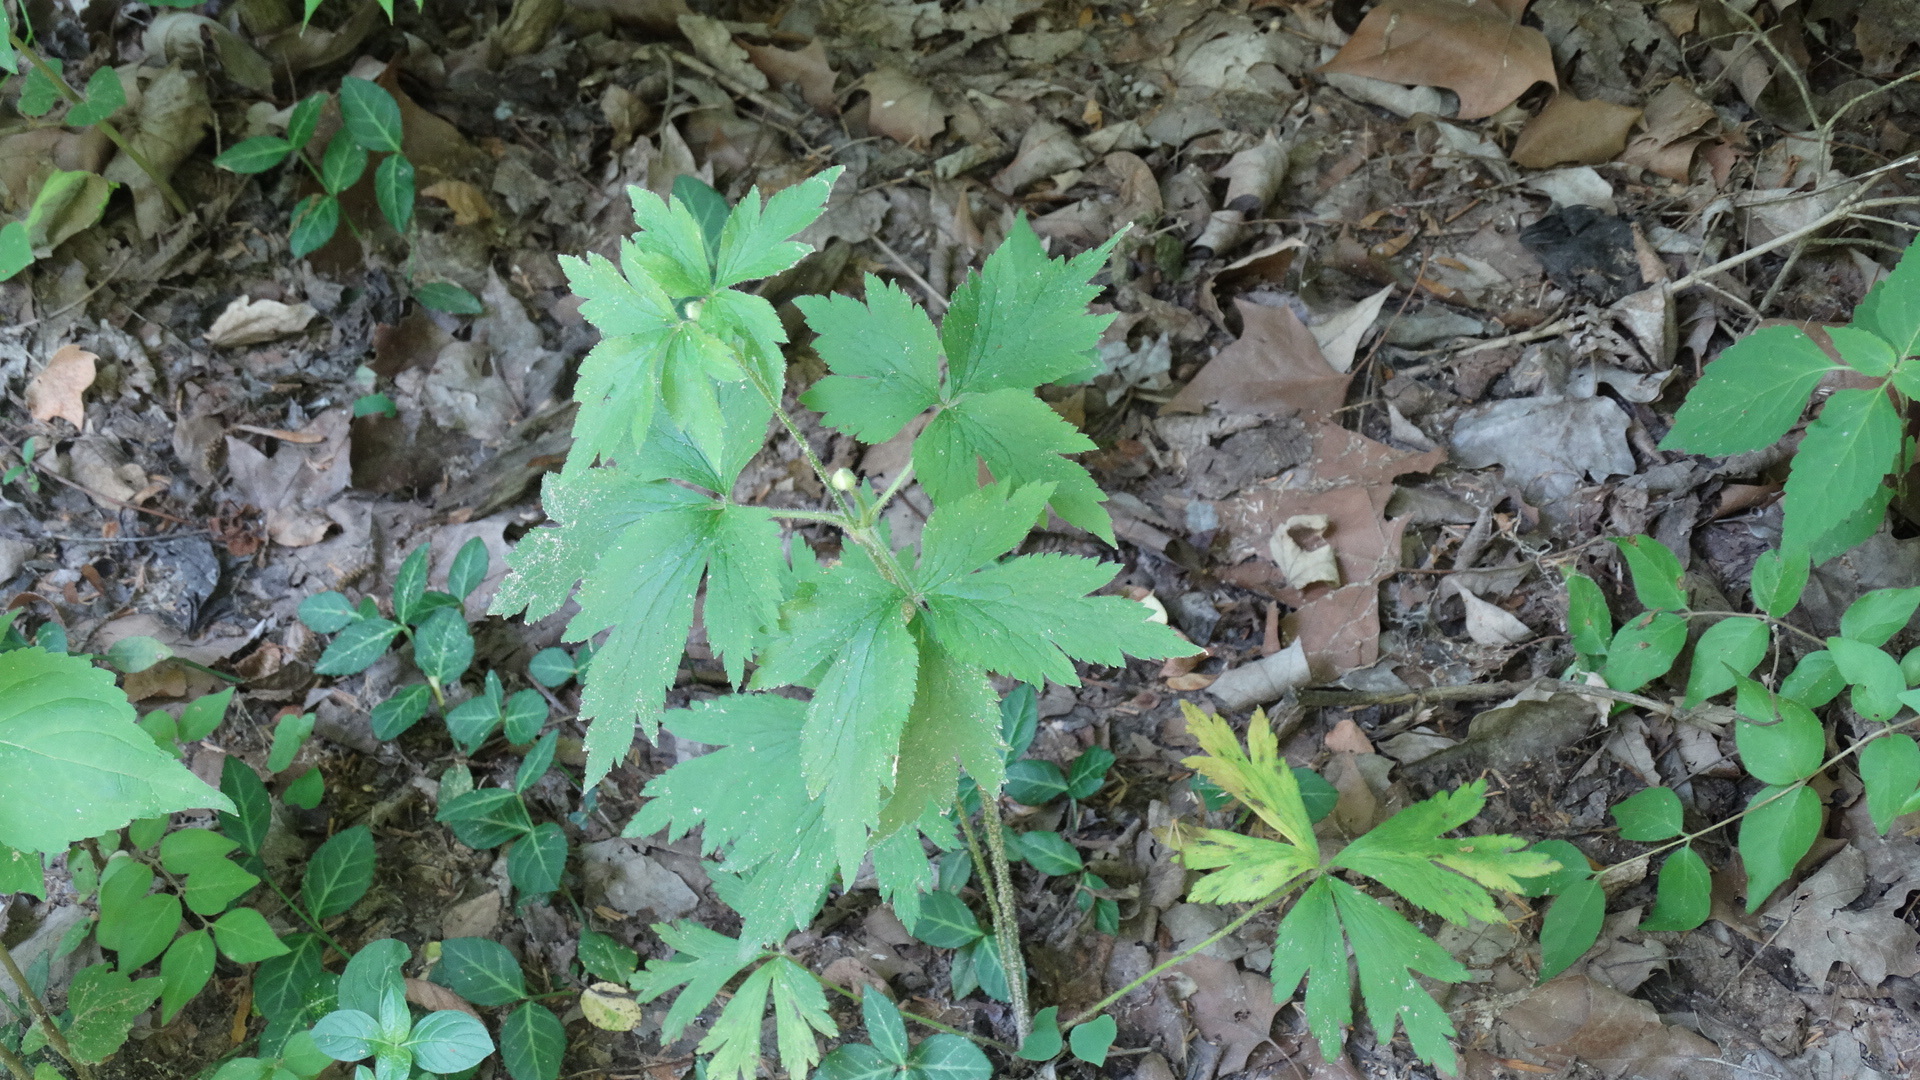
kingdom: Plantae
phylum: Tracheophyta
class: Magnoliopsida
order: Ranunculales
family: Ranunculaceae
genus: Anemone
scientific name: Anemone virginiana
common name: Tall anemone
